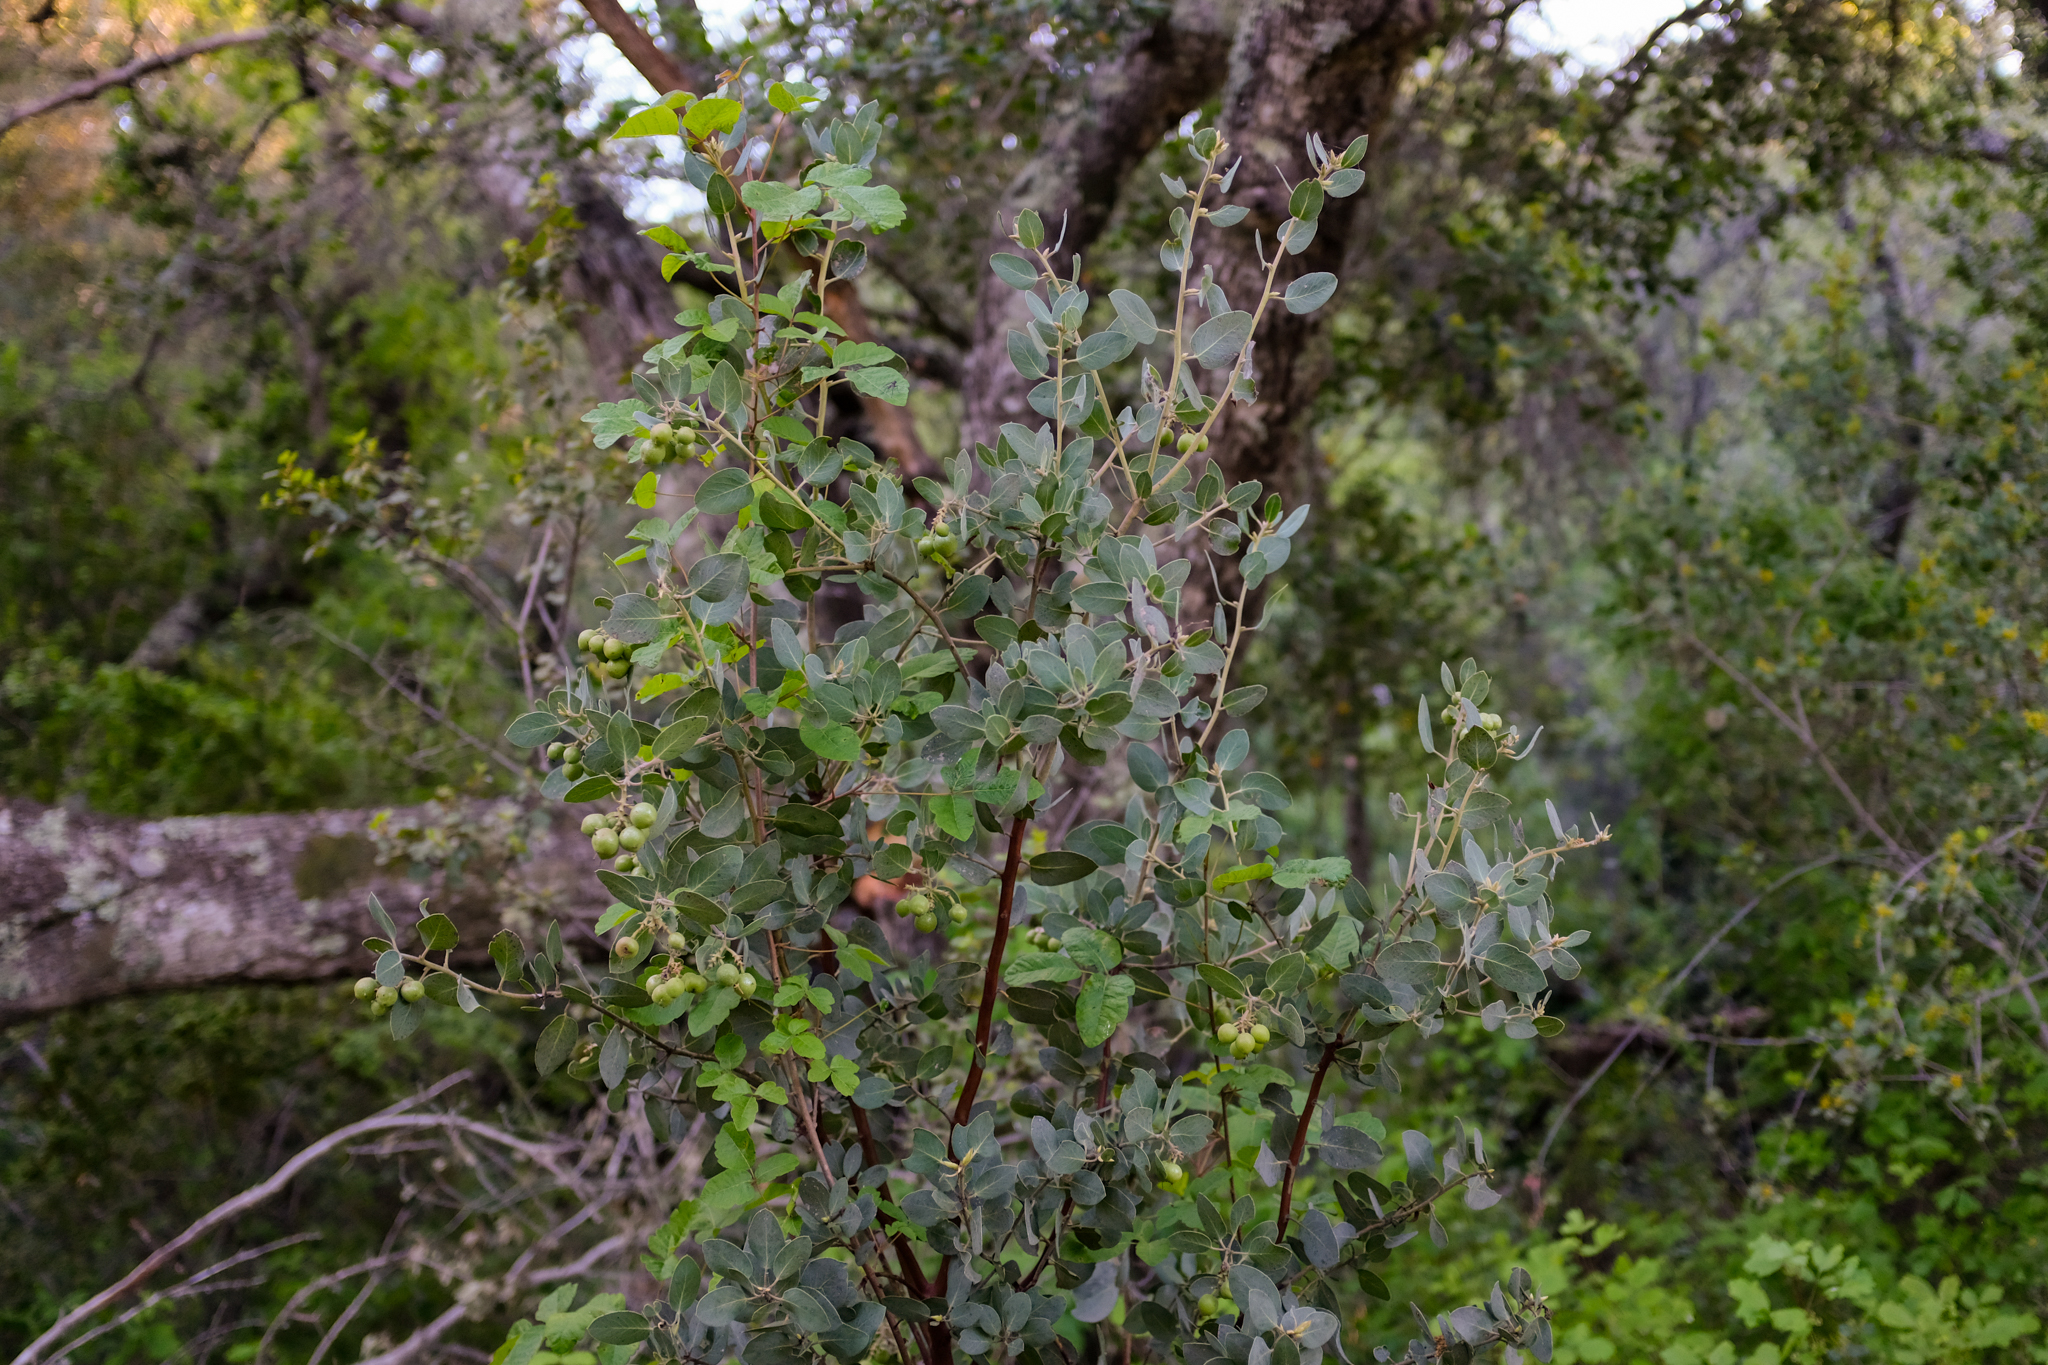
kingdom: Plantae
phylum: Tracheophyta
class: Magnoliopsida
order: Ericales
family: Ericaceae
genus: Arctostaphylos
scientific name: Arctostaphylos glauca
